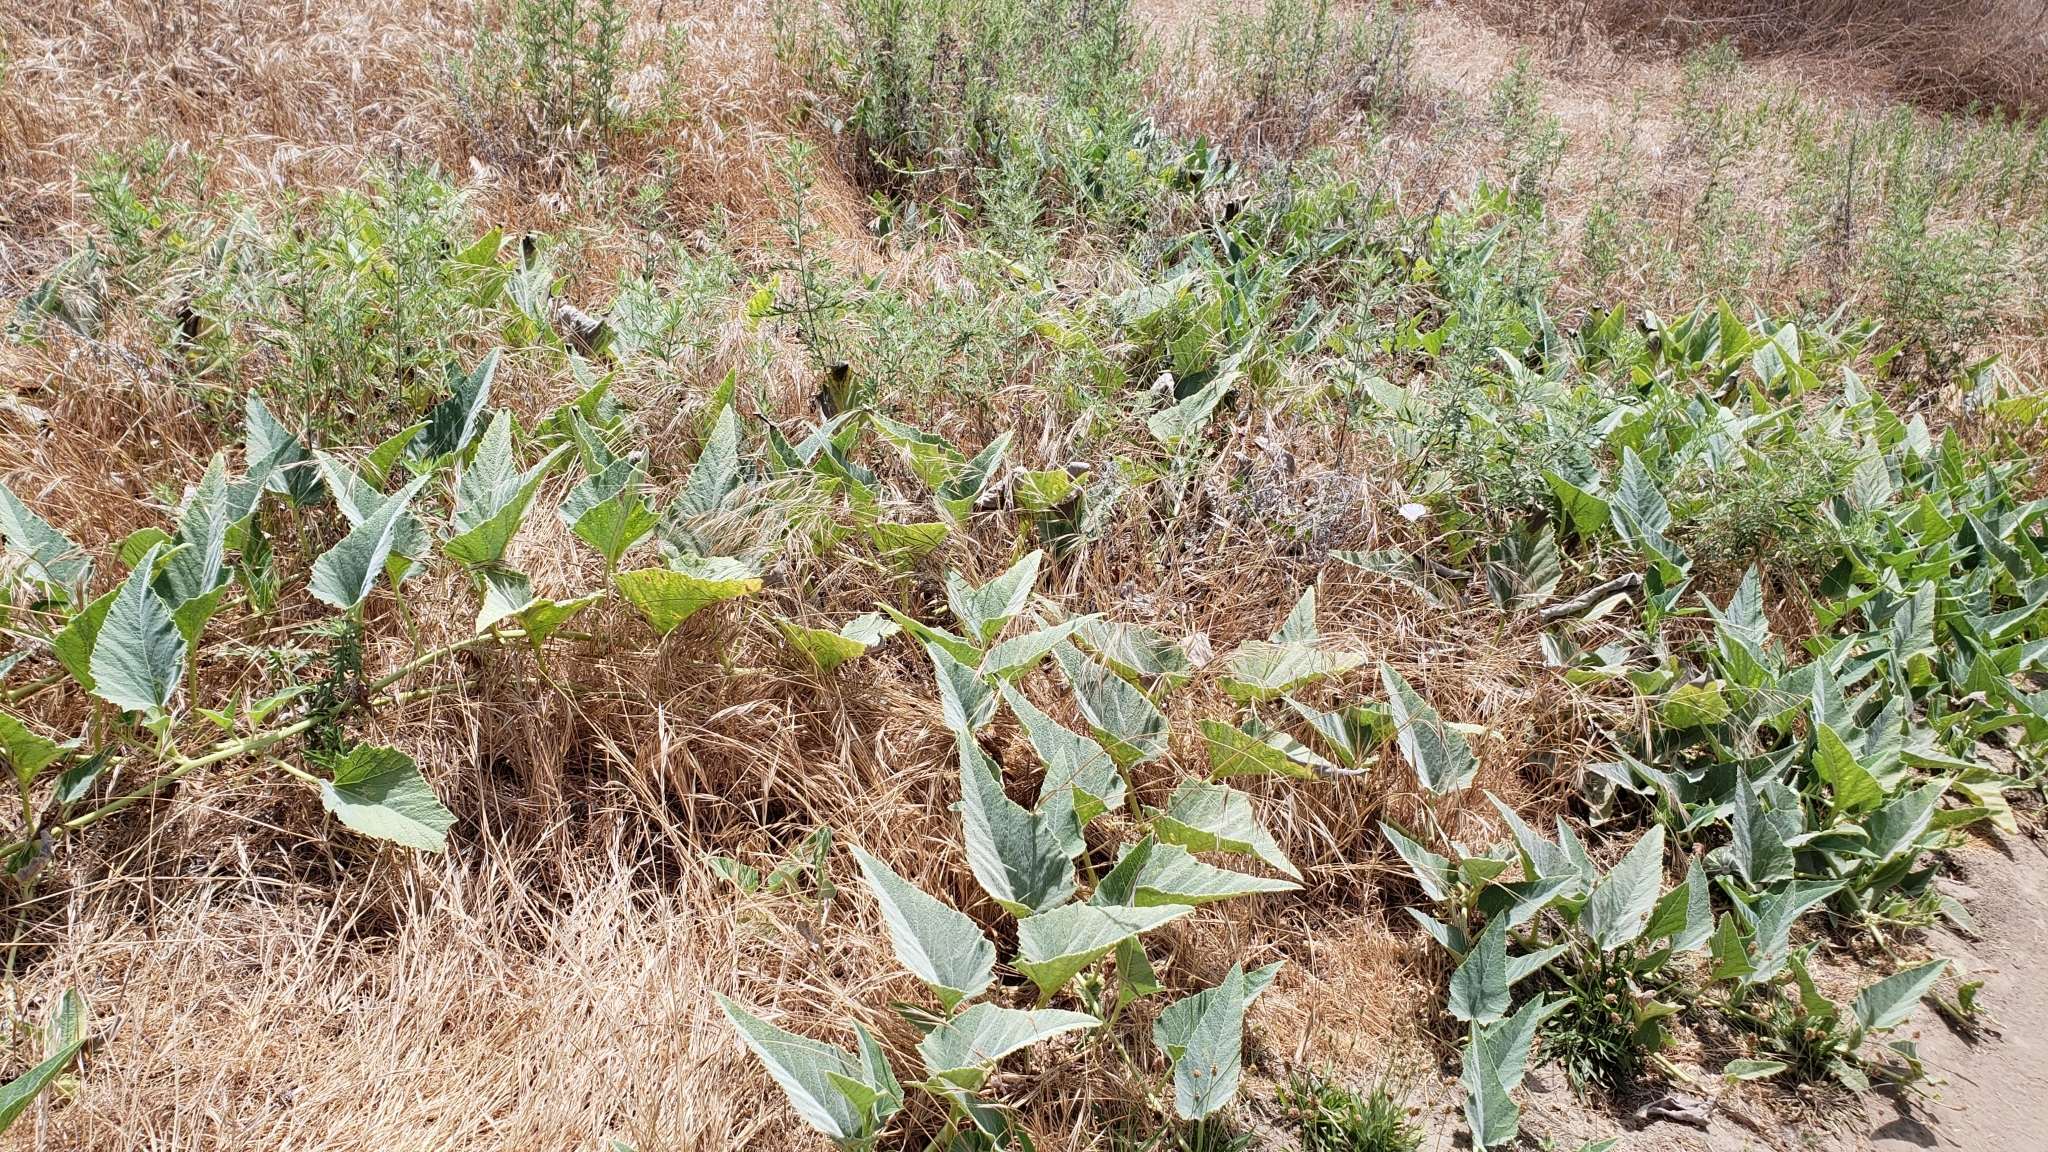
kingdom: Plantae
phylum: Tracheophyta
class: Magnoliopsida
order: Cucurbitales
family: Cucurbitaceae
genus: Cucurbita
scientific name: Cucurbita foetidissima
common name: Buffalo gourd
